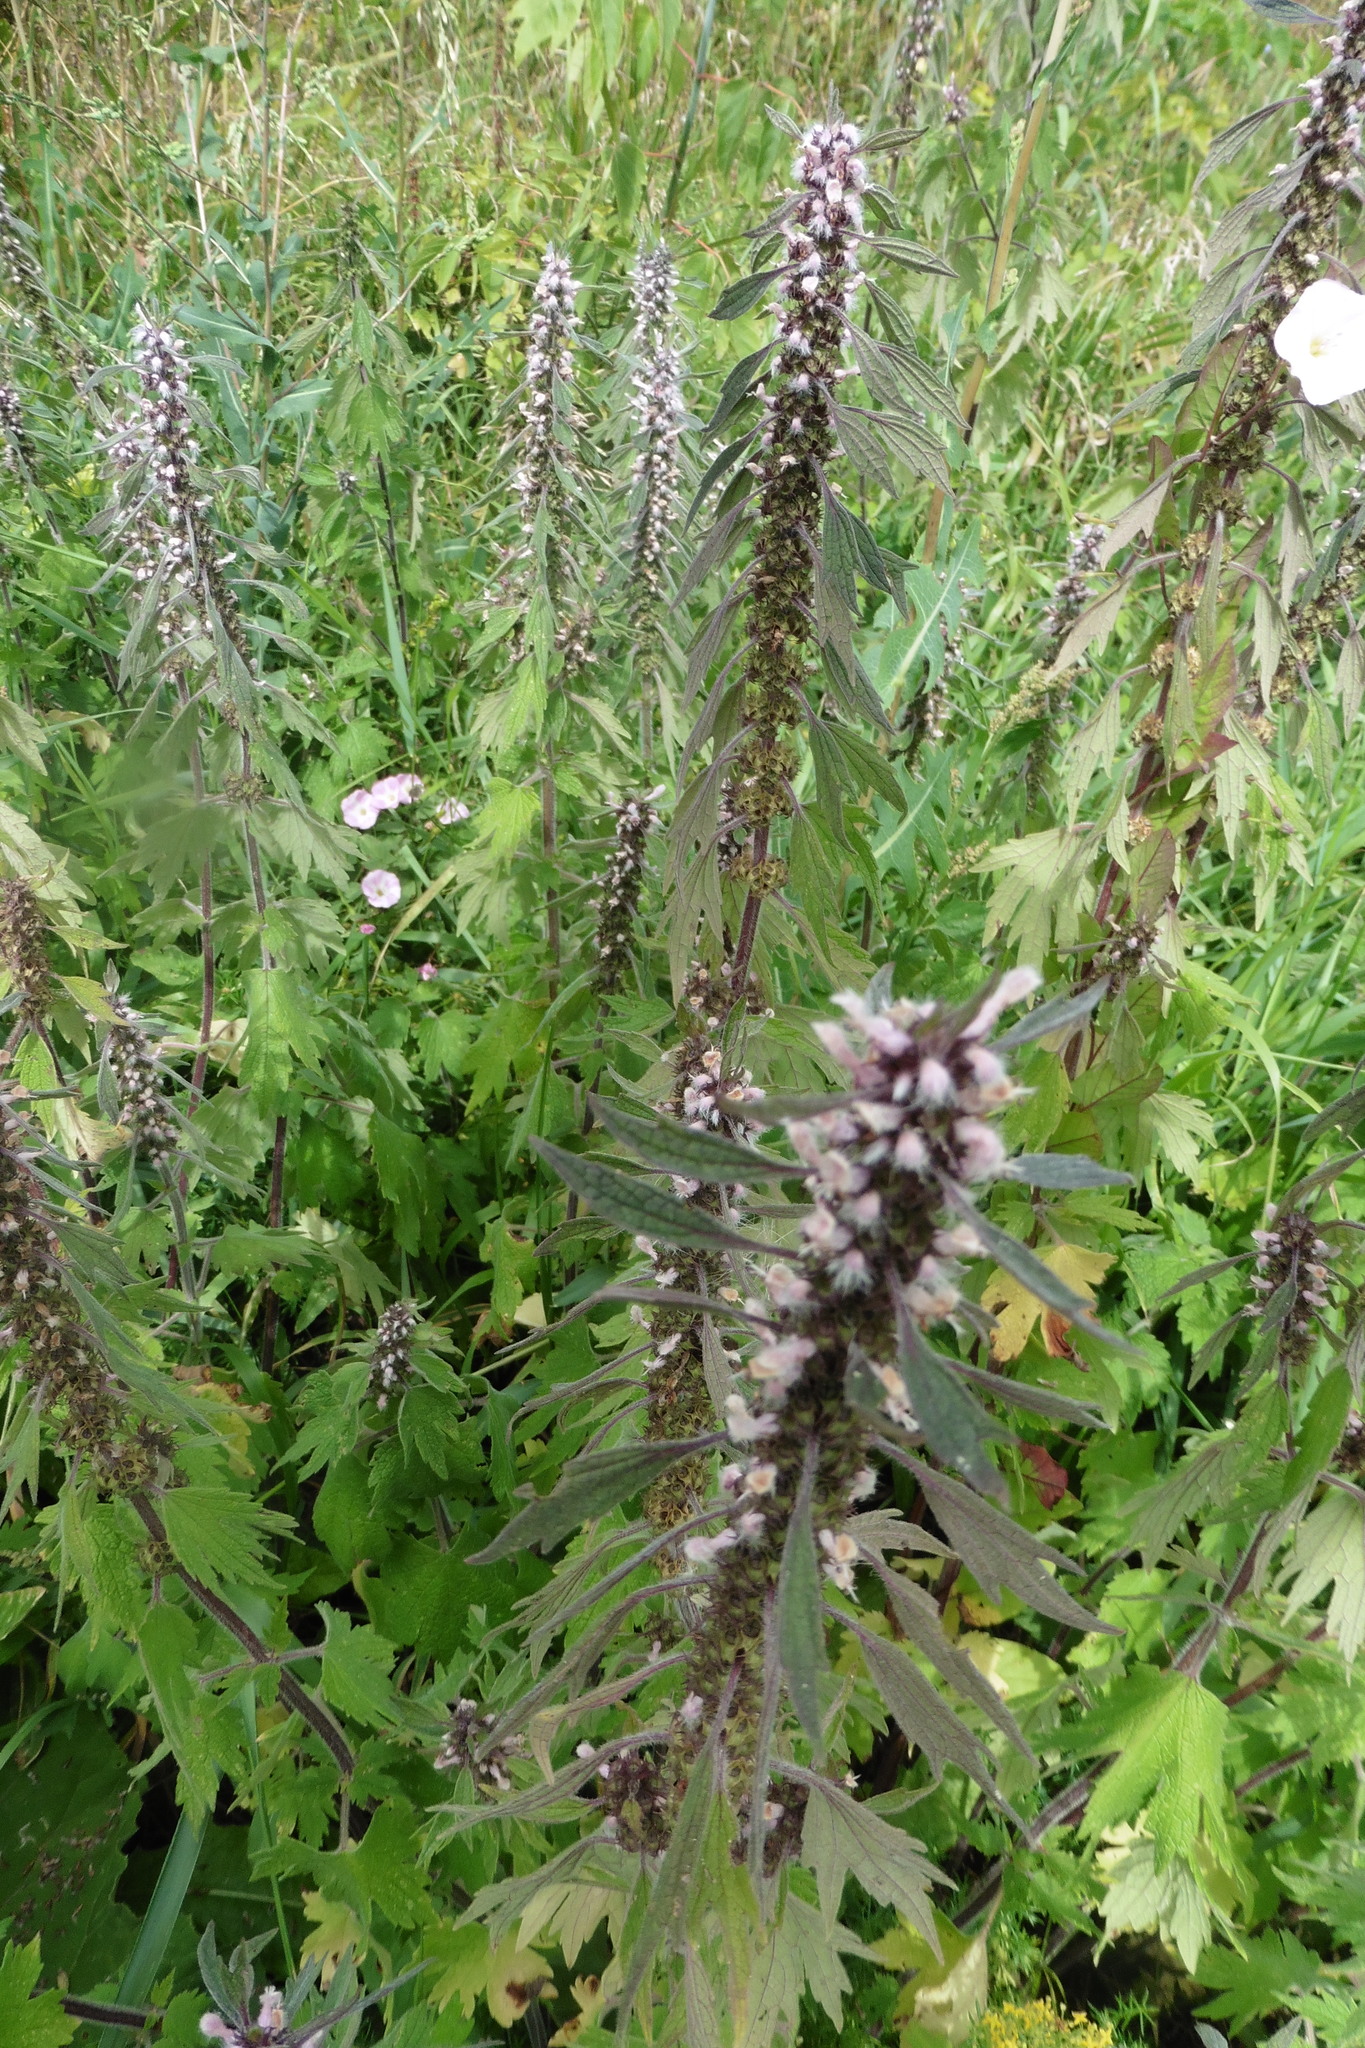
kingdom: Plantae
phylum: Tracheophyta
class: Magnoliopsida
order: Lamiales
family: Lamiaceae
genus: Leonurus
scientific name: Leonurus quinquelobatus
